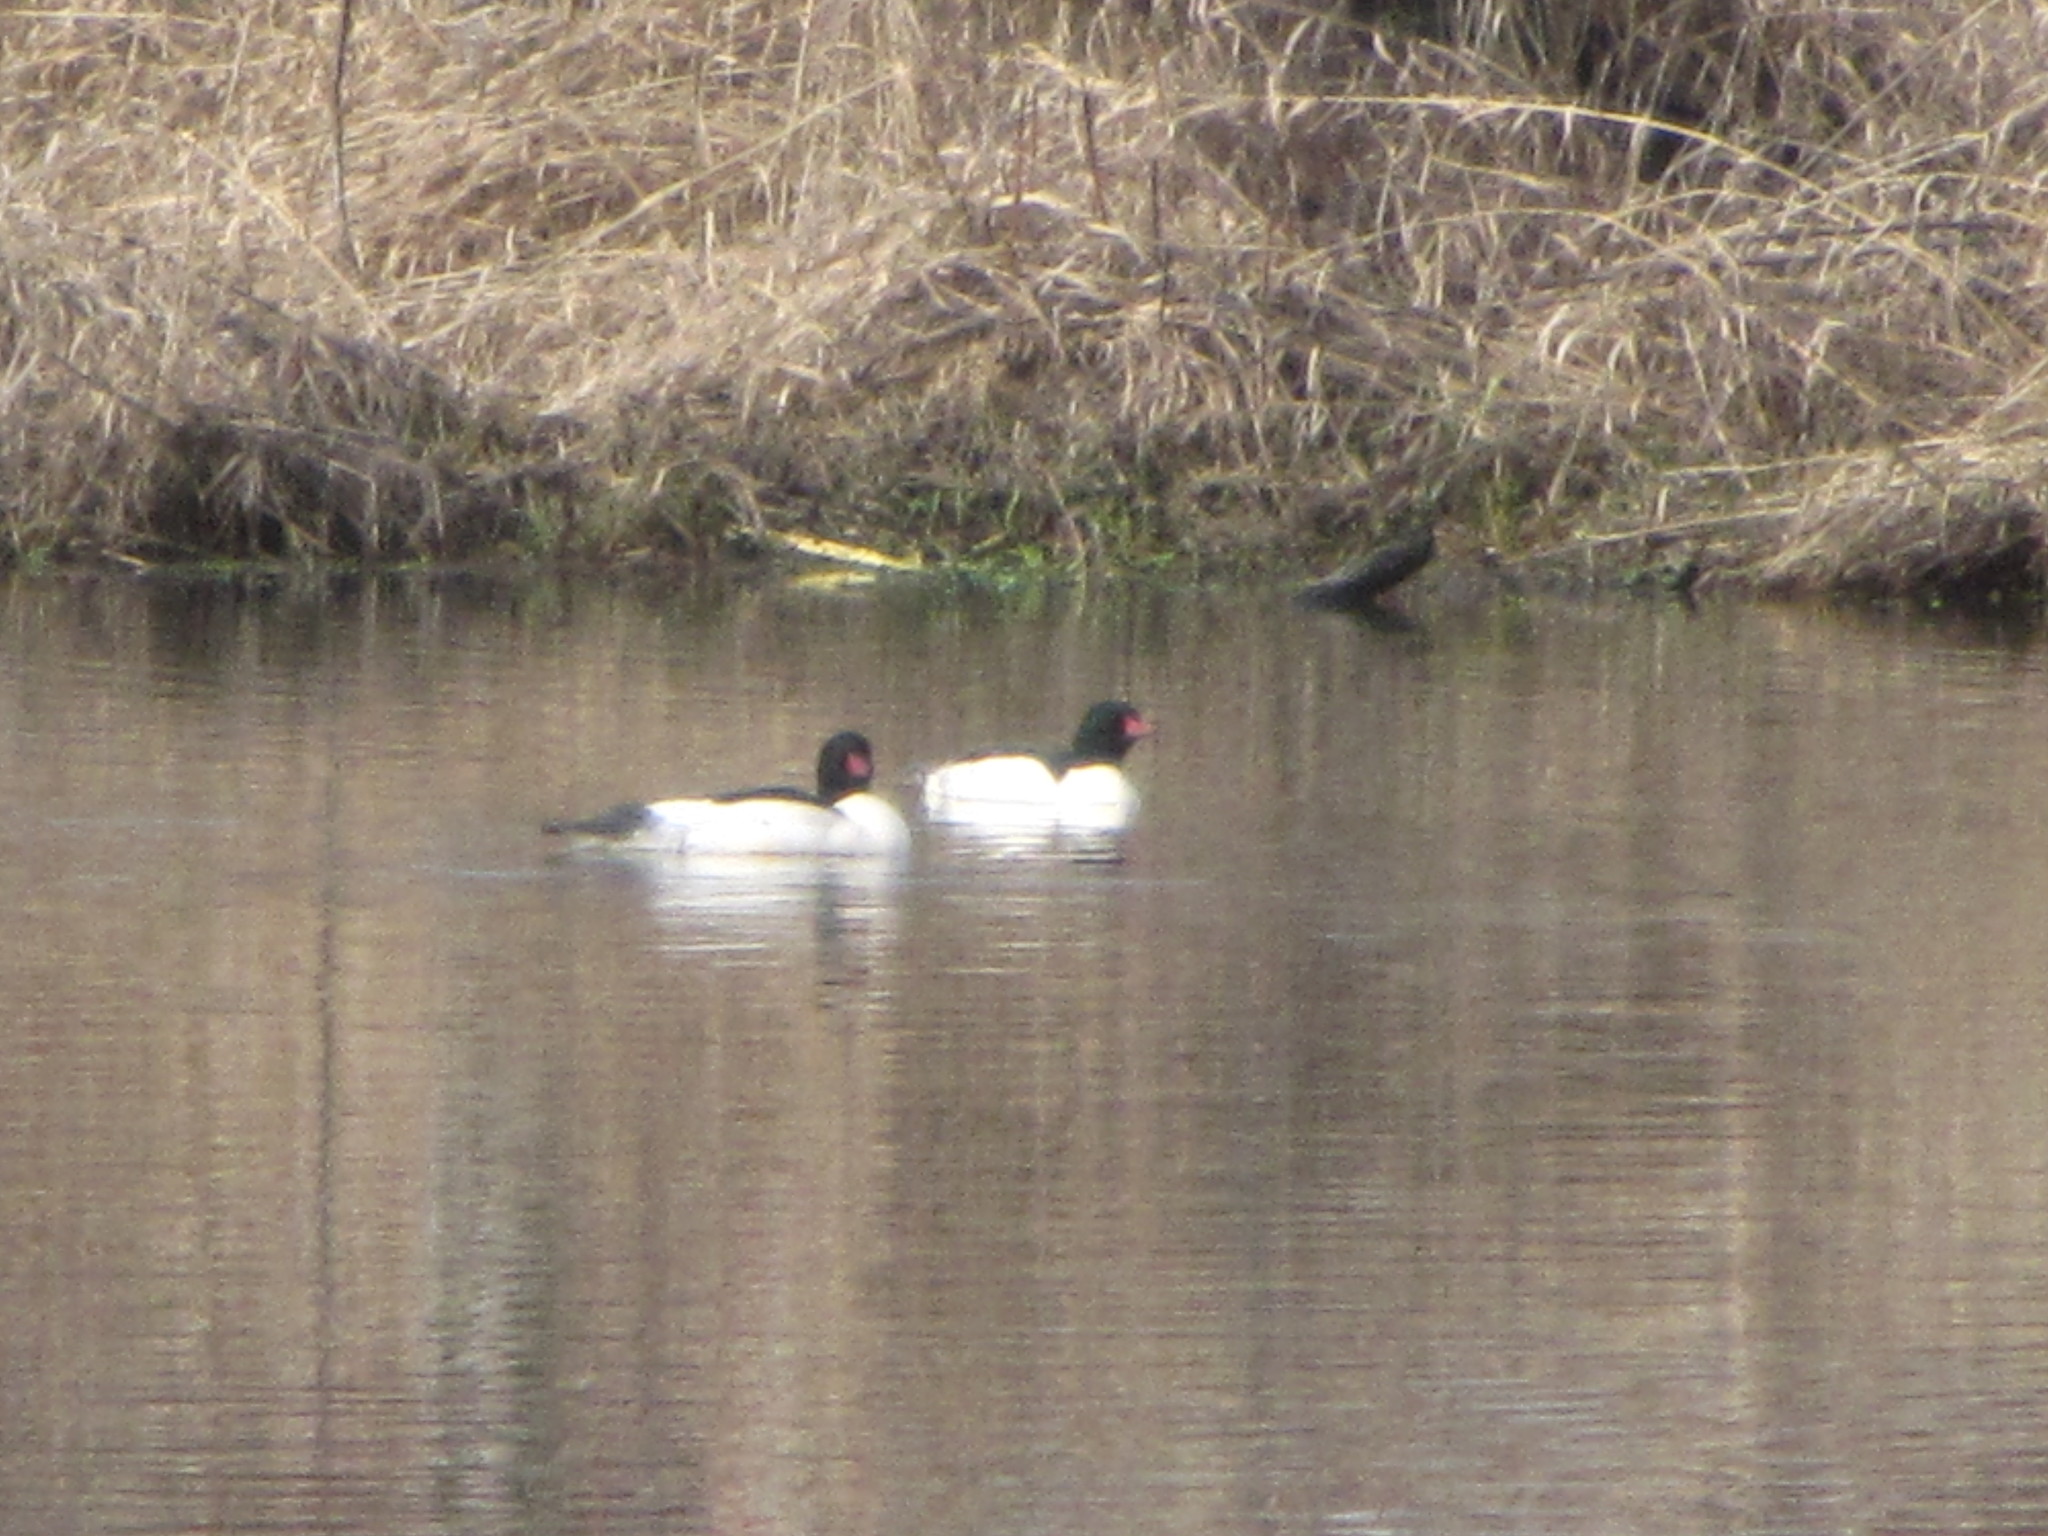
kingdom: Animalia
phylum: Chordata
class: Aves
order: Anseriformes
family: Anatidae
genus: Mergus
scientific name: Mergus merganser
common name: Common merganser
